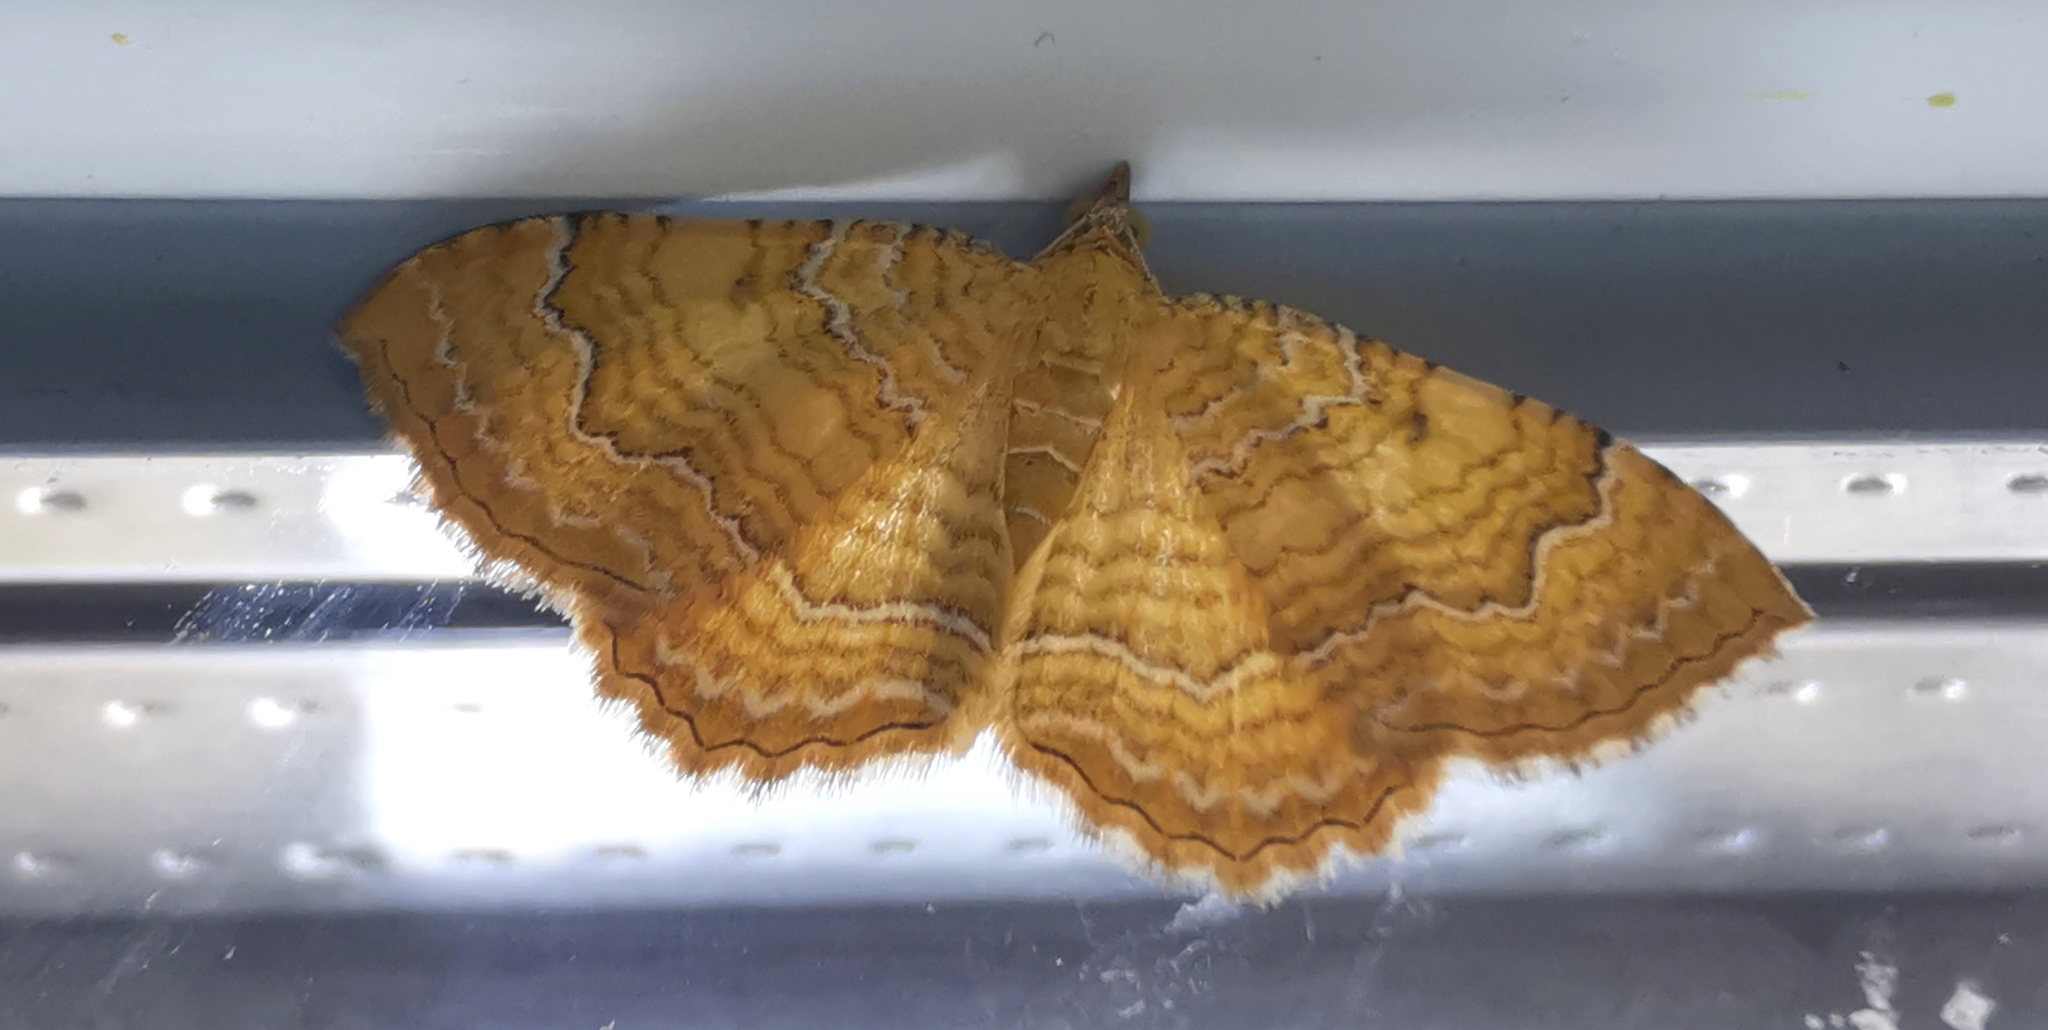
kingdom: Animalia
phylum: Arthropoda
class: Insecta
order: Lepidoptera
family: Geometridae
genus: Camptogramma
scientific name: Camptogramma bilineata
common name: Yellow shell
